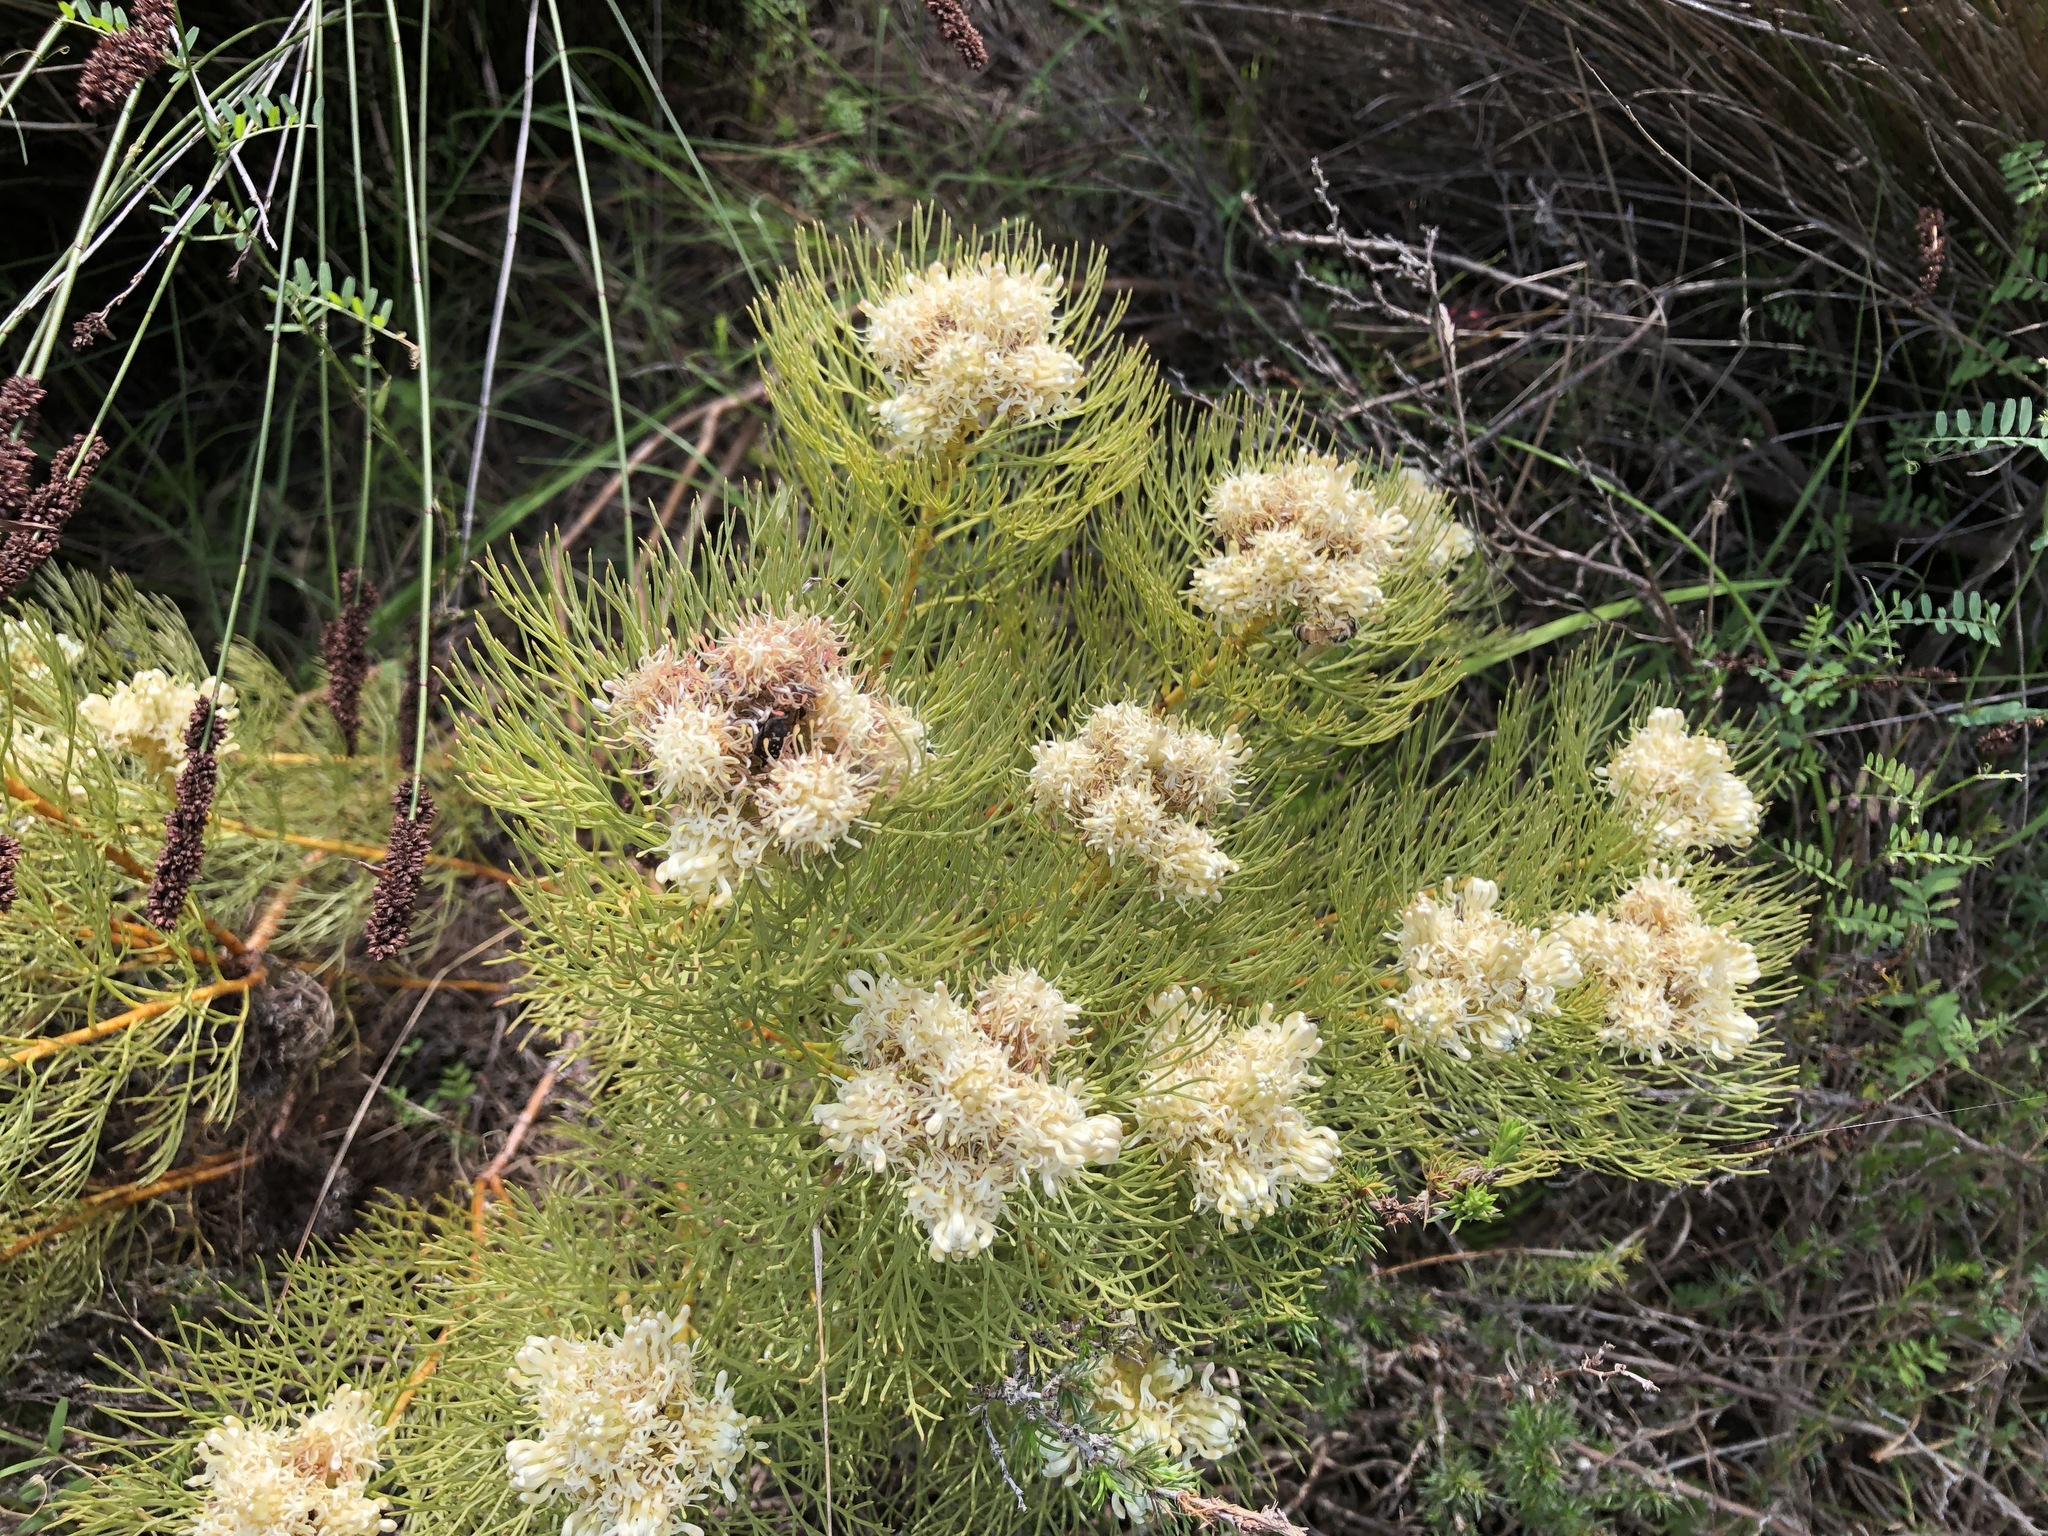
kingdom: Plantae
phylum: Tracheophyta
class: Magnoliopsida
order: Proteales
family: Proteaceae
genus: Serruria
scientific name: Serruria glomerata
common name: Cluster spiderhead
